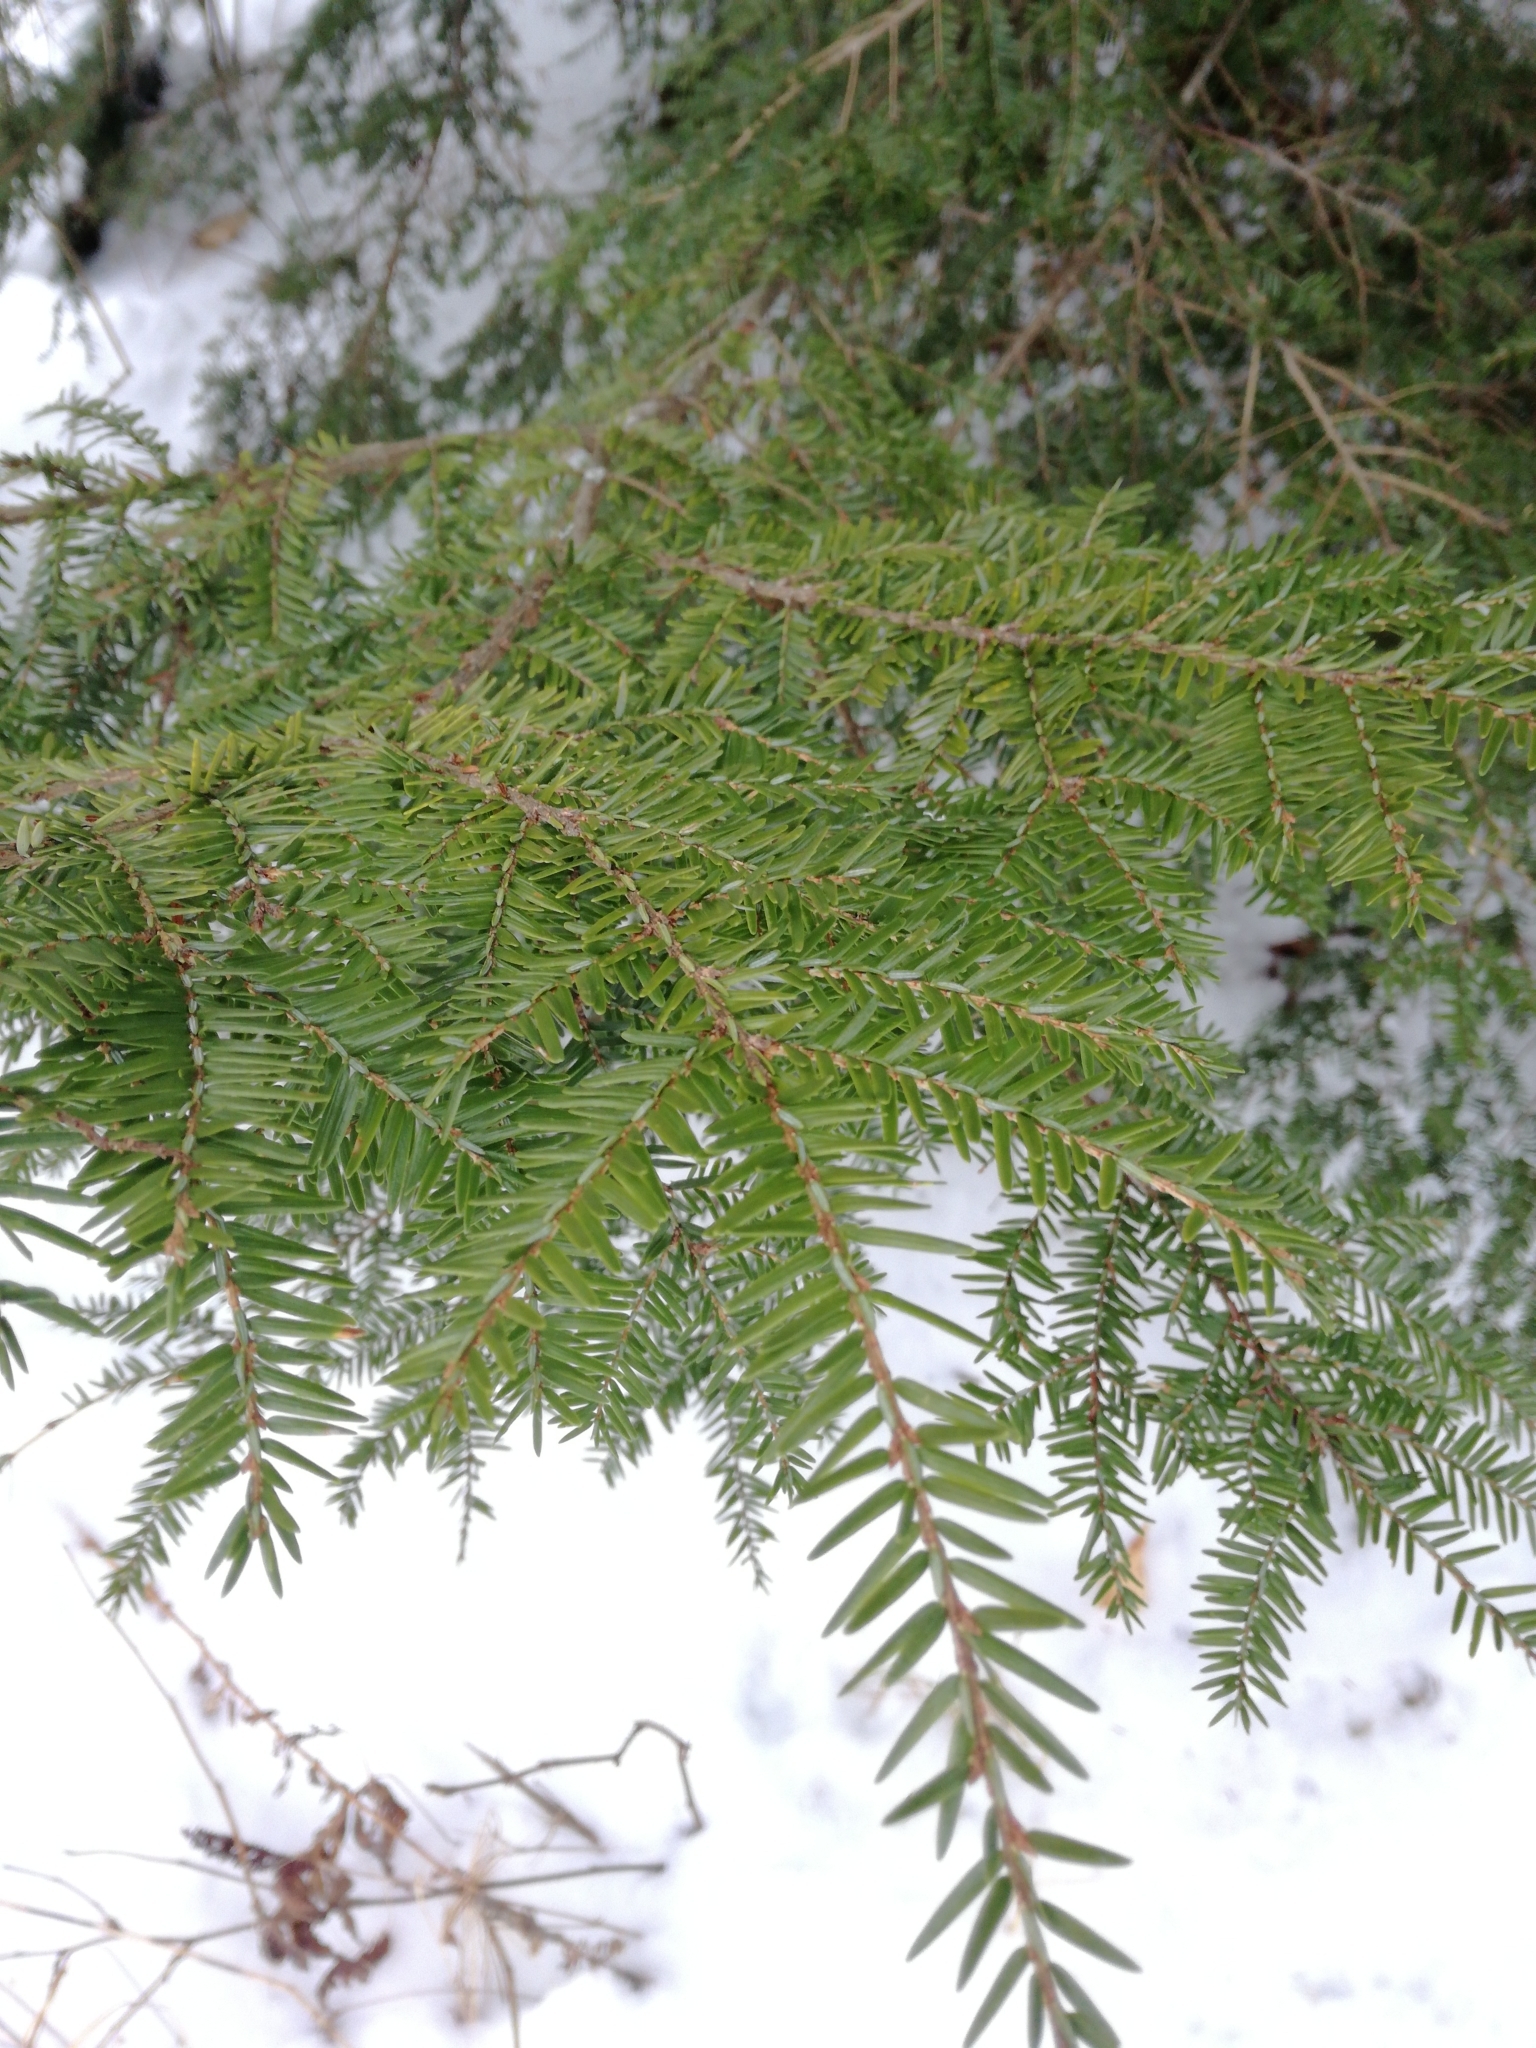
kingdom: Plantae
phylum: Tracheophyta
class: Pinopsida
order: Pinales
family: Pinaceae
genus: Tsuga
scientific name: Tsuga canadensis
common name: Eastern hemlock
